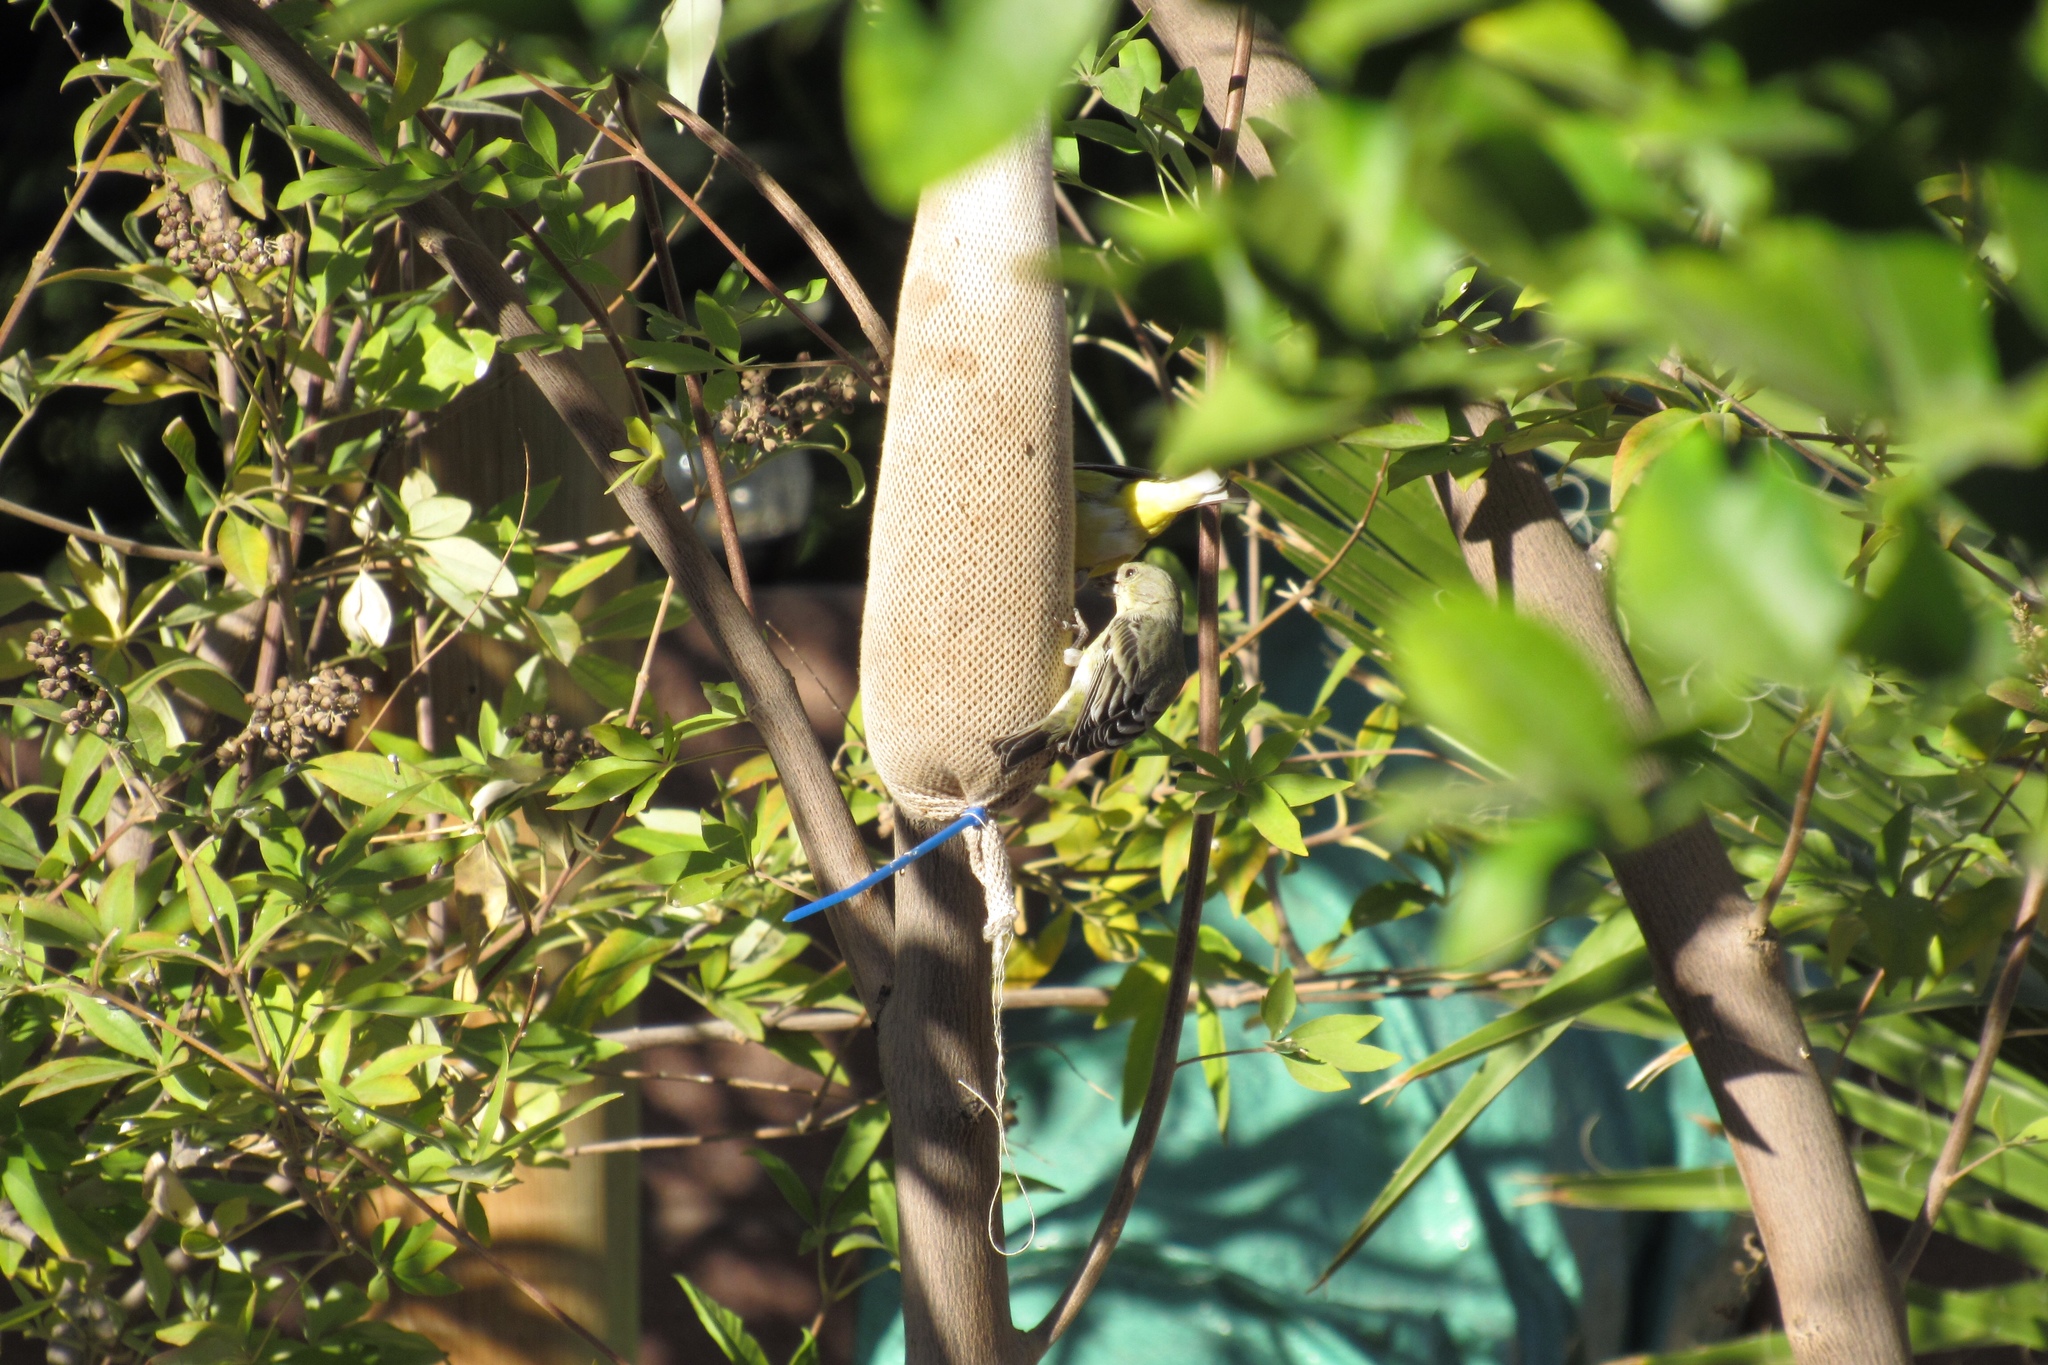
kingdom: Animalia
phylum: Chordata
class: Aves
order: Passeriformes
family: Fringillidae
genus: Spinus
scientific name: Spinus psaltria
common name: Lesser goldfinch
